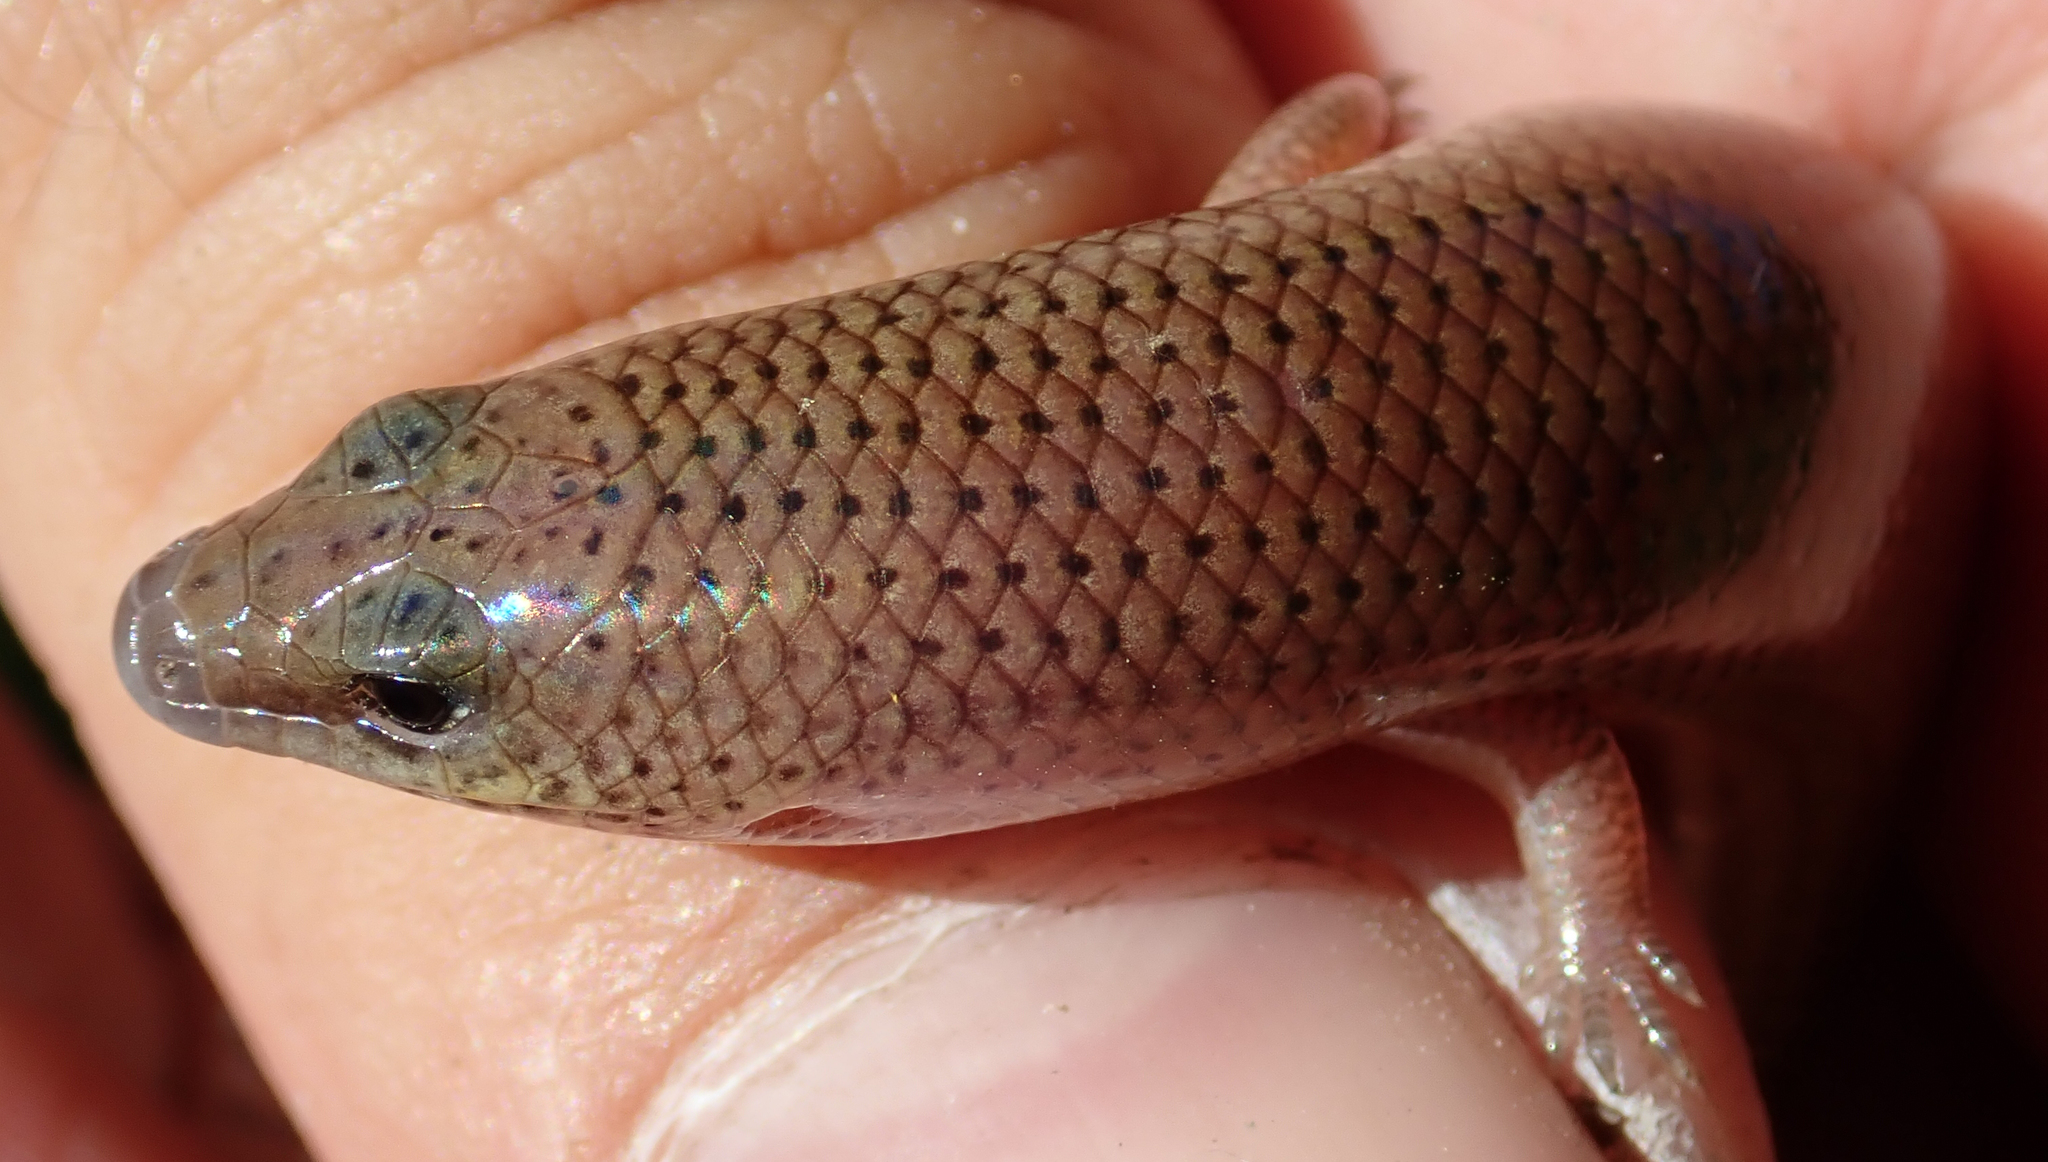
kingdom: Animalia
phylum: Chordata
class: Squamata
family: Scincidae
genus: Mochlus
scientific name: Mochlus sundevallii
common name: Peters' eyelid skink
